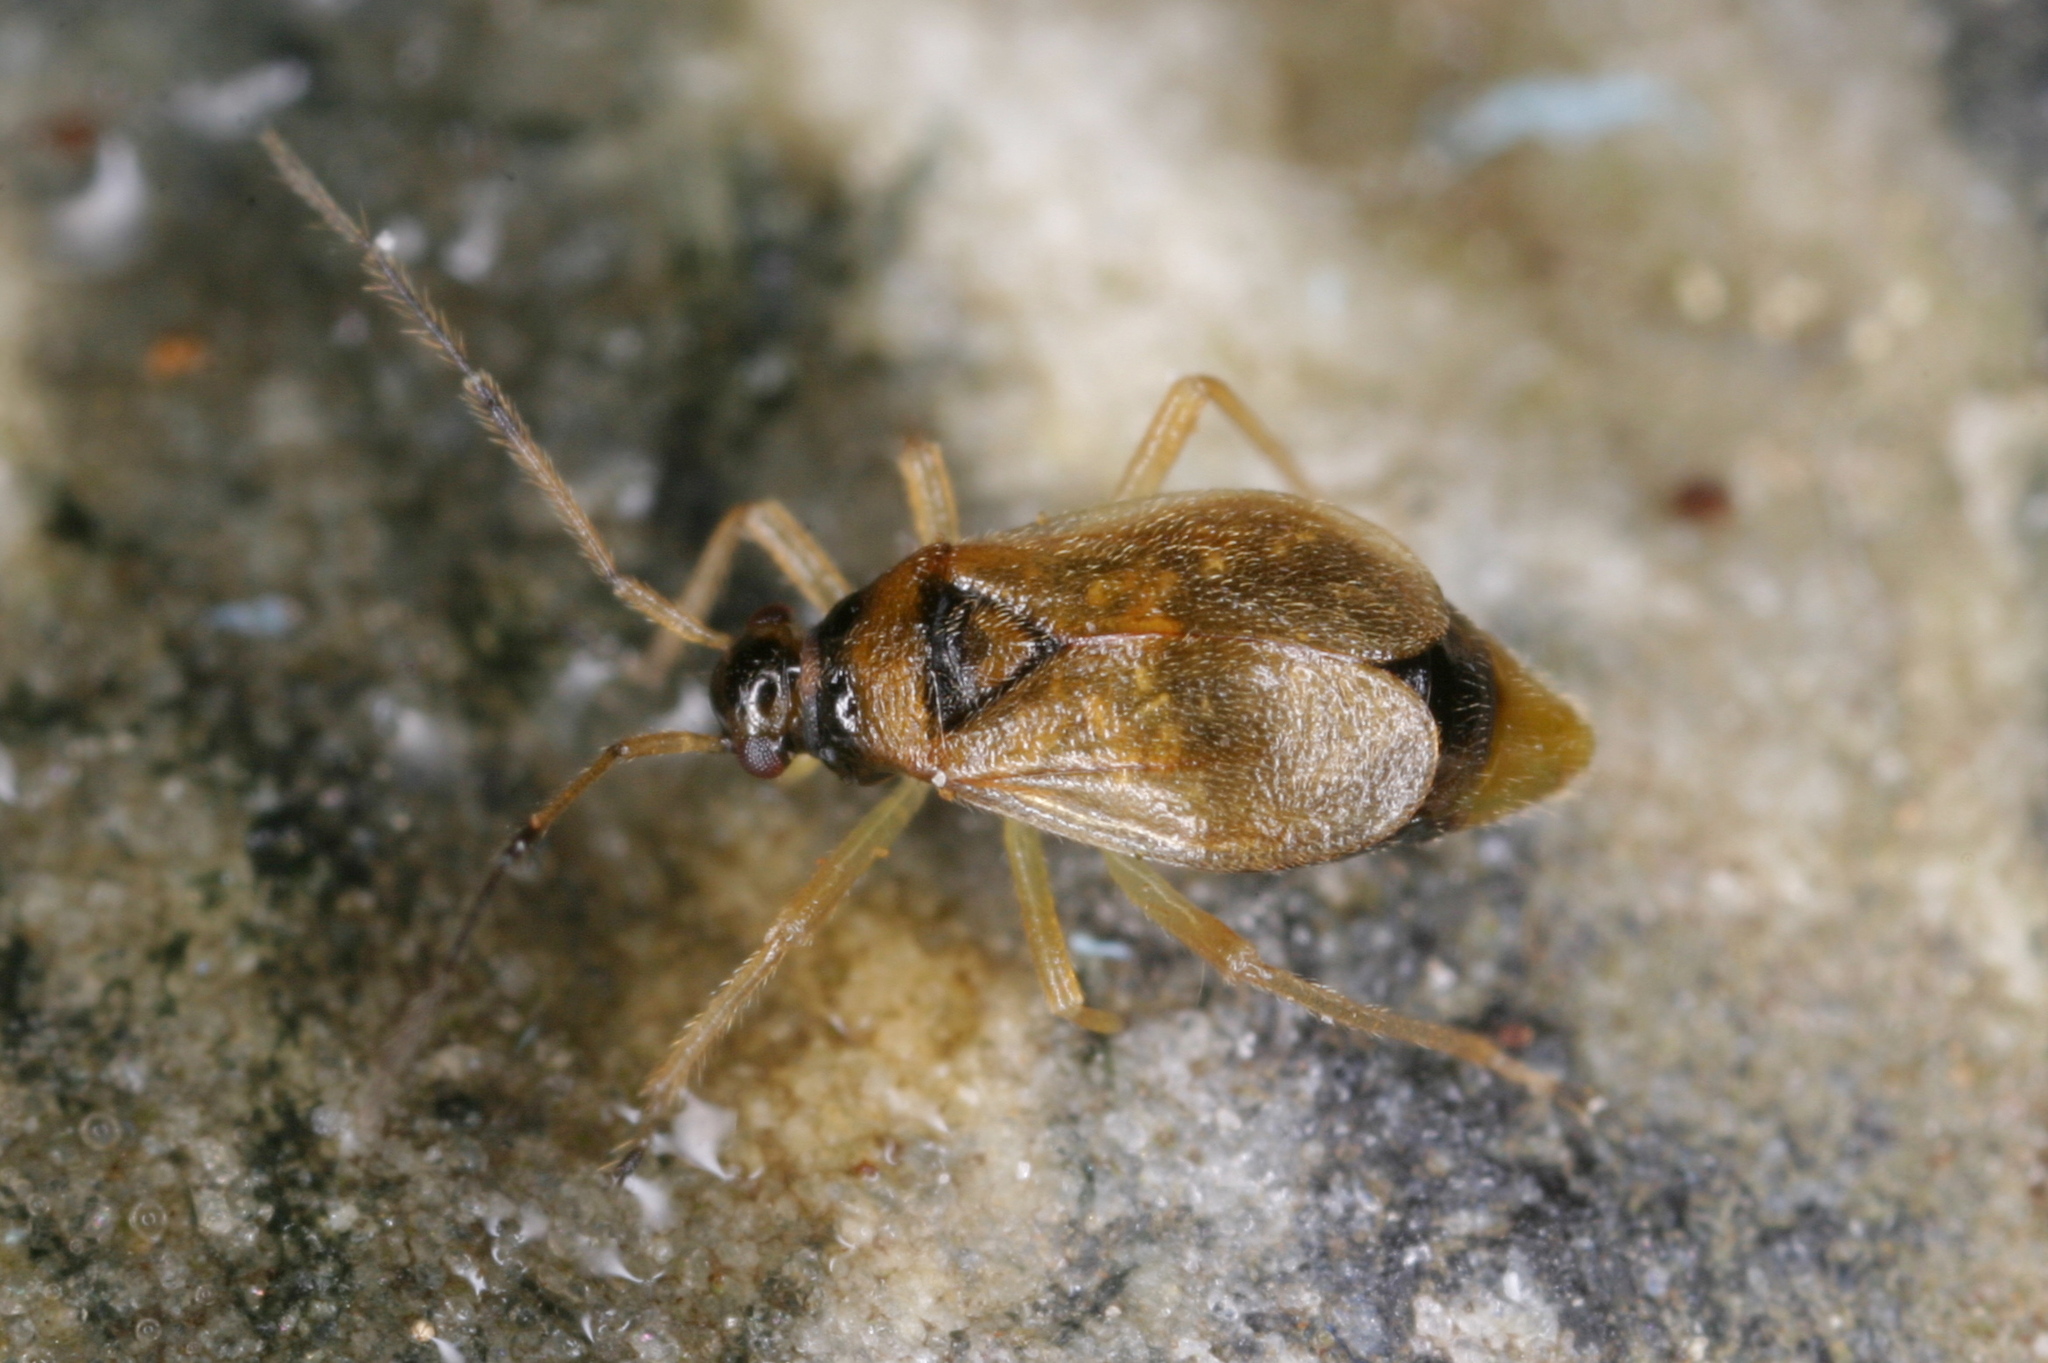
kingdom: Animalia
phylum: Arthropoda
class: Insecta
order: Hemiptera
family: Miridae
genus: Bryocoris
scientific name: Bryocoris pteridis
